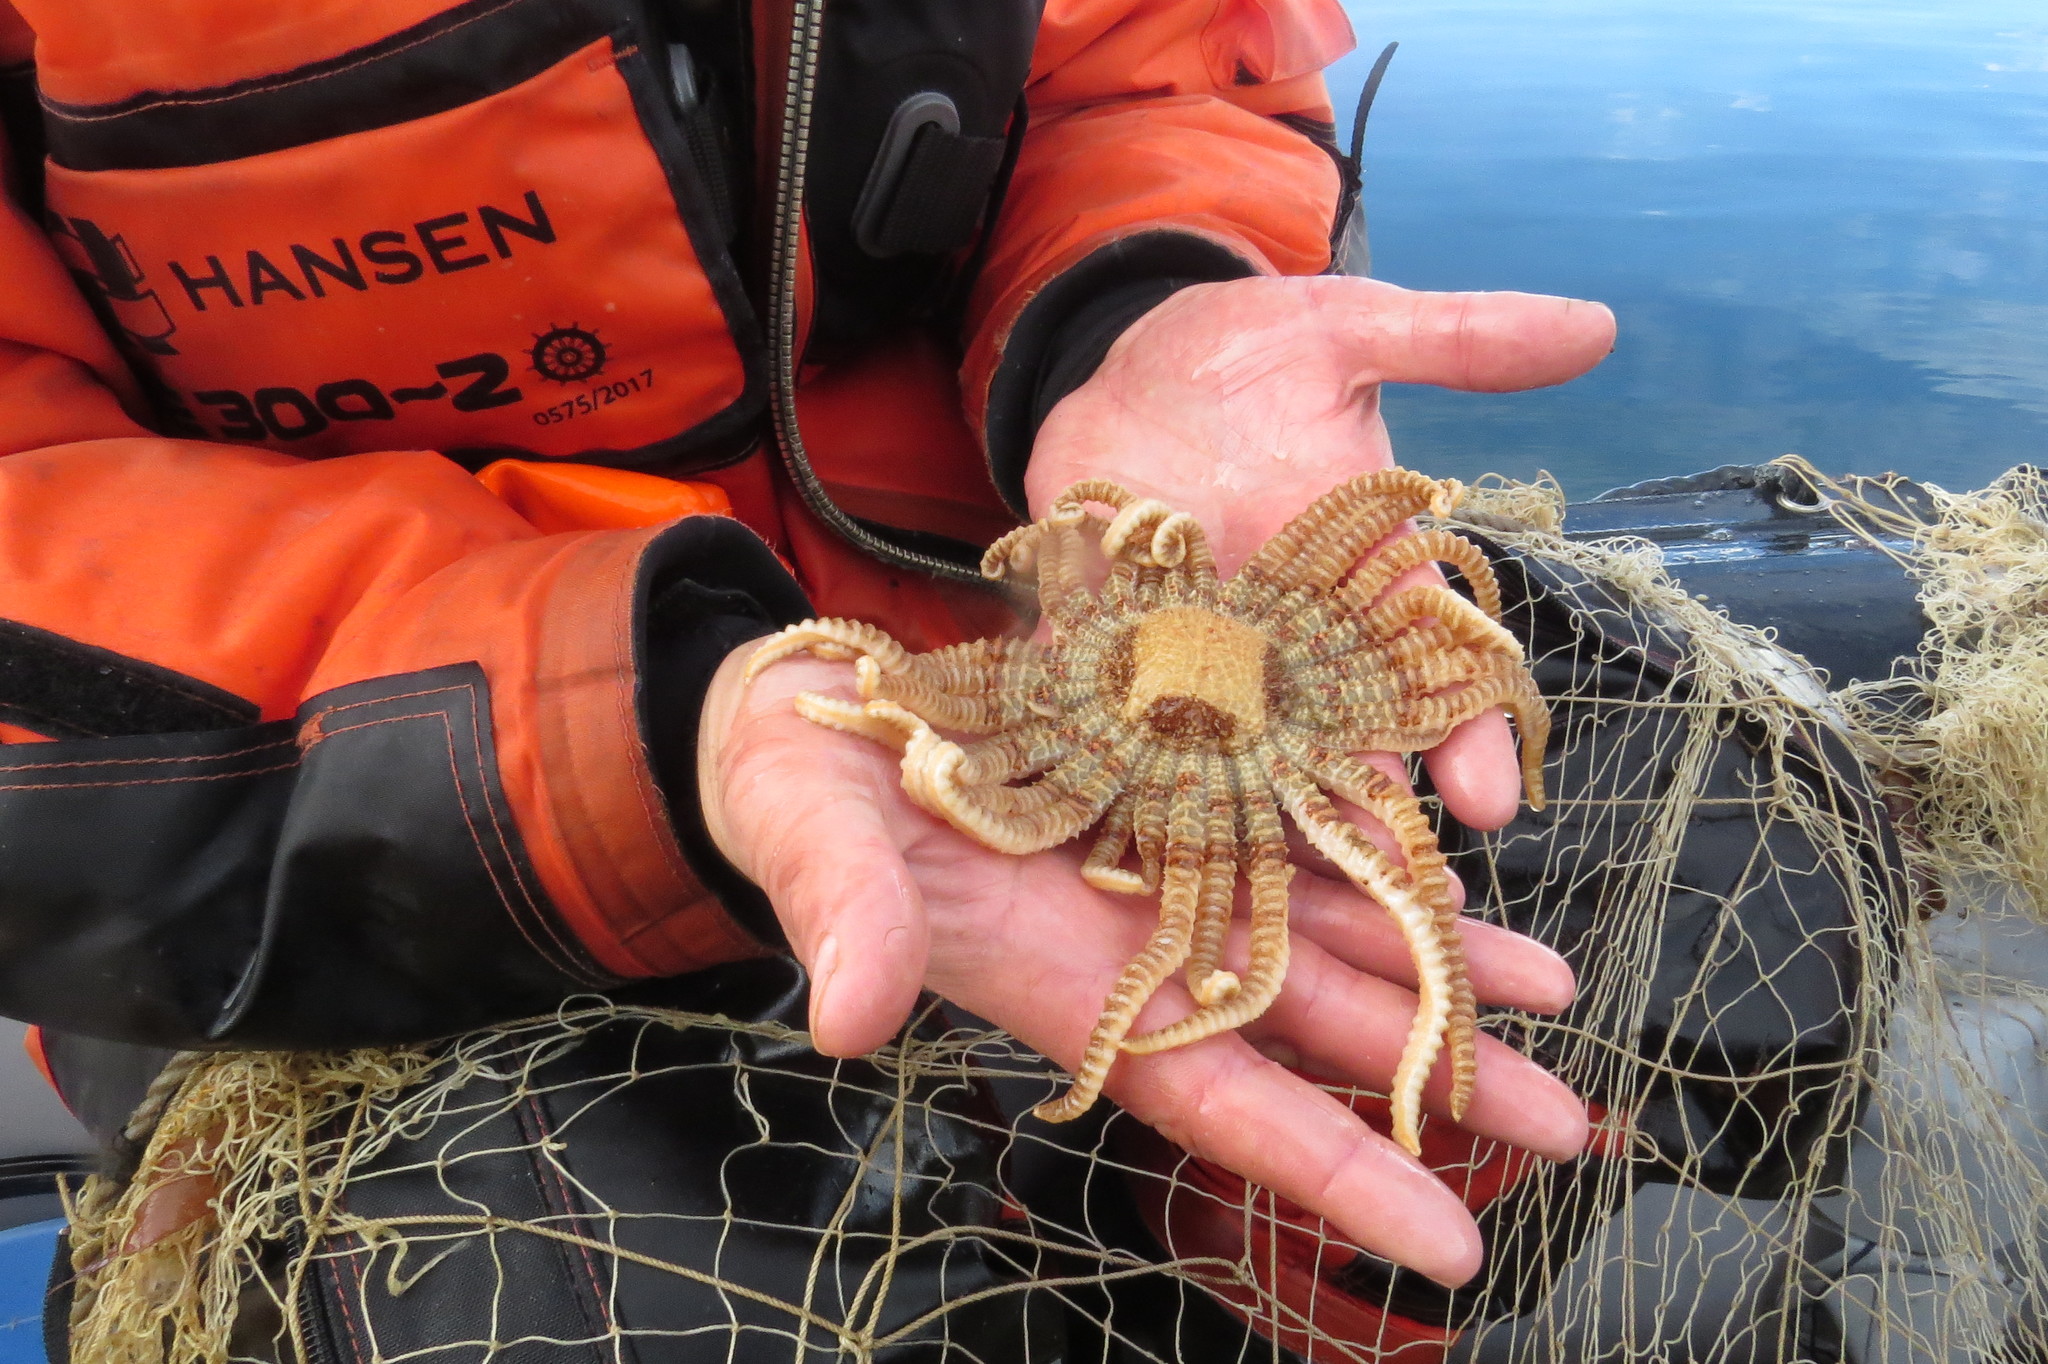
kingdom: Animalia
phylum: Echinodermata
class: Asteroidea
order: Forcipulatida
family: Heliasteridae
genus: Labidiaster
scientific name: Labidiaster annulatus
